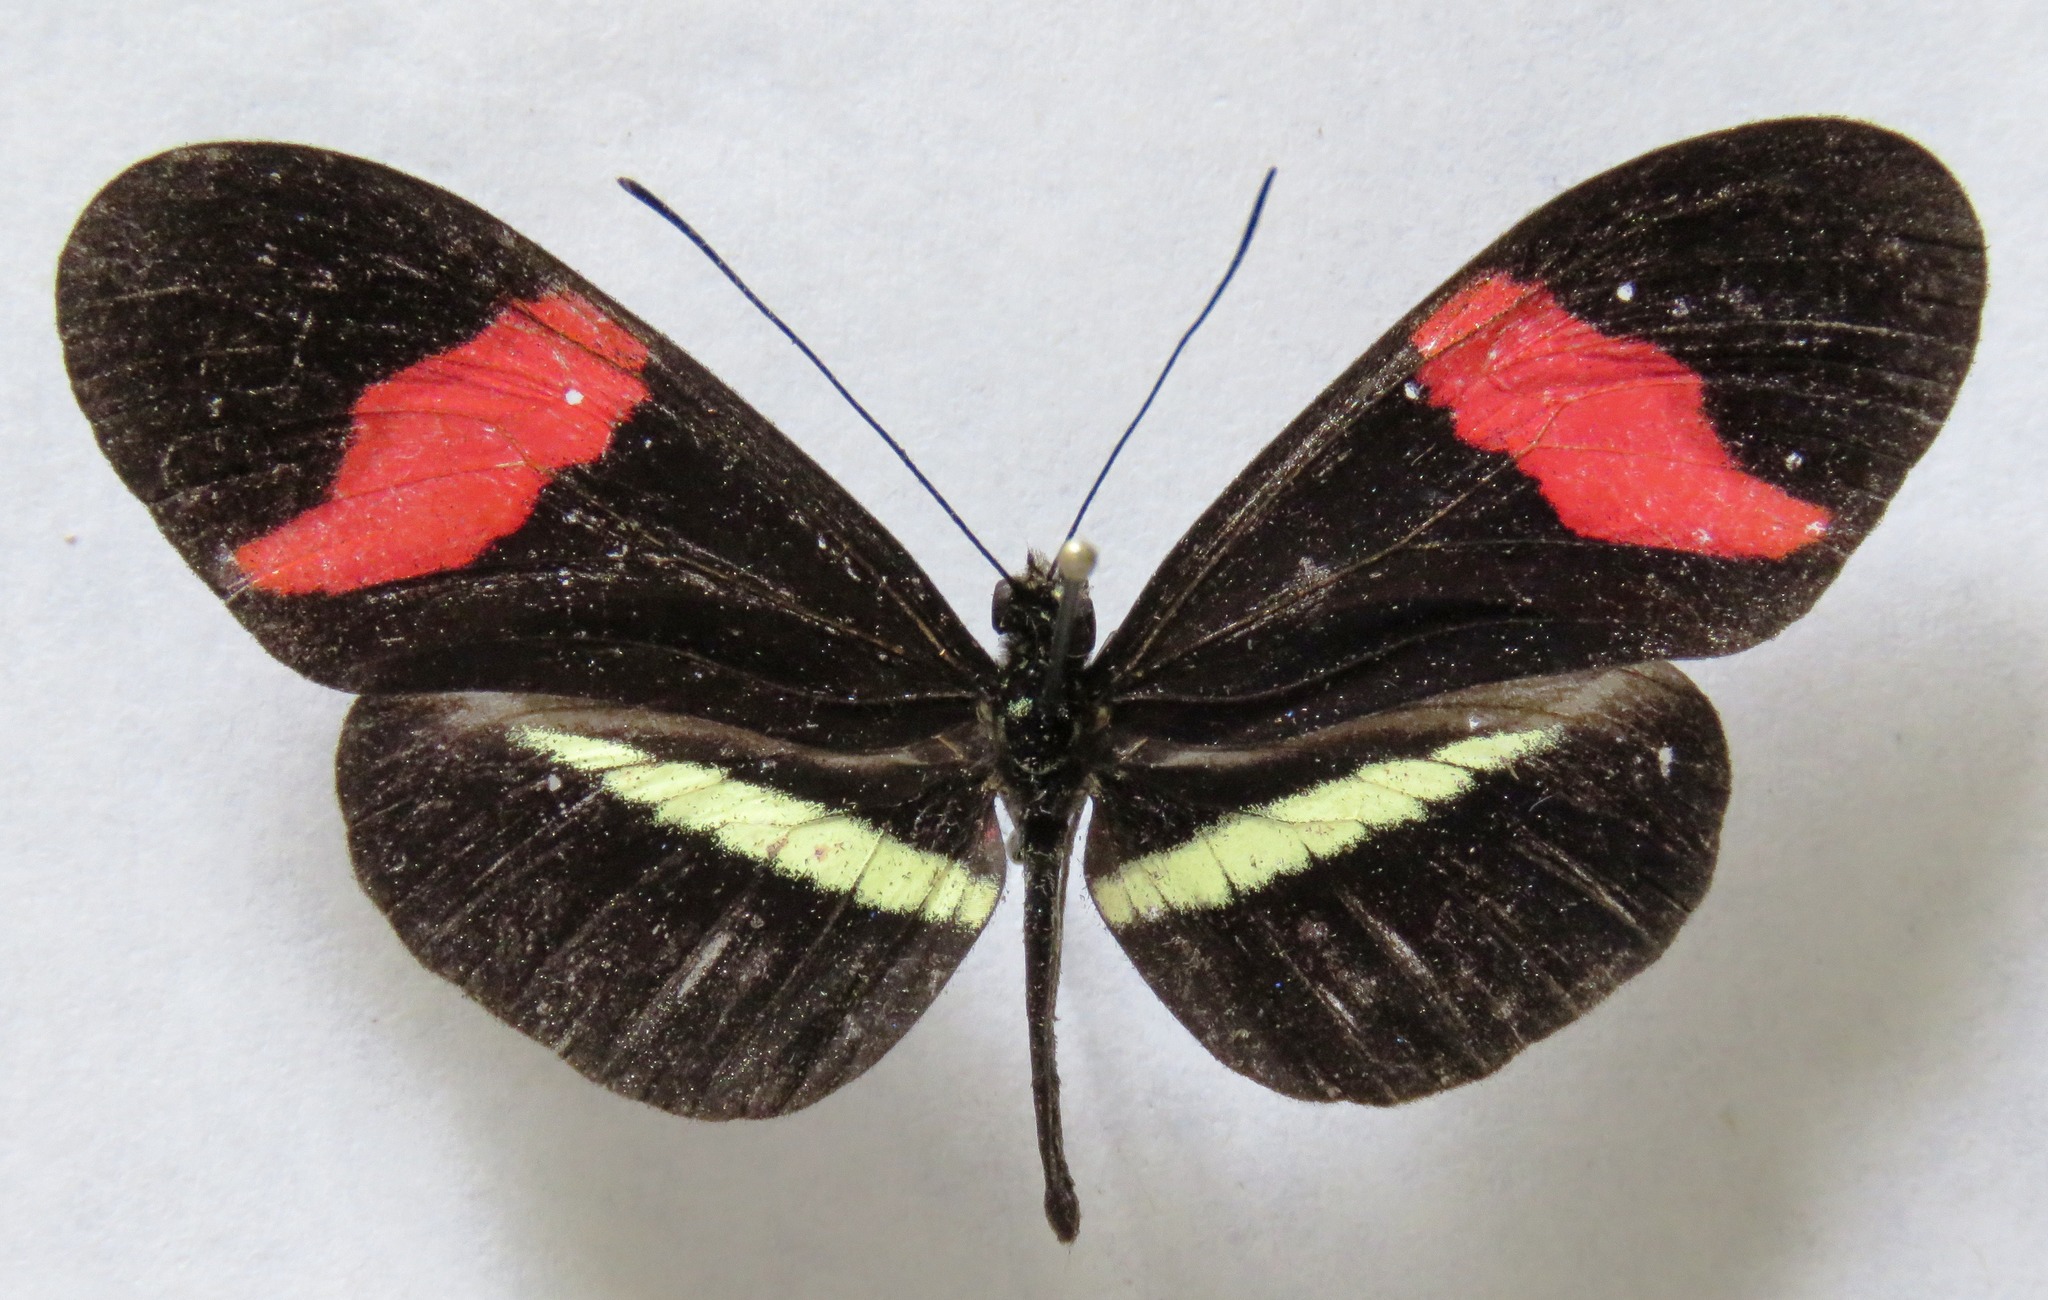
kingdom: Animalia
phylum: Arthropoda
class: Insecta
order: Lepidoptera
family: Nymphalidae
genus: Tirumala
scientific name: Tirumala petiverana
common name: Blue monarch
